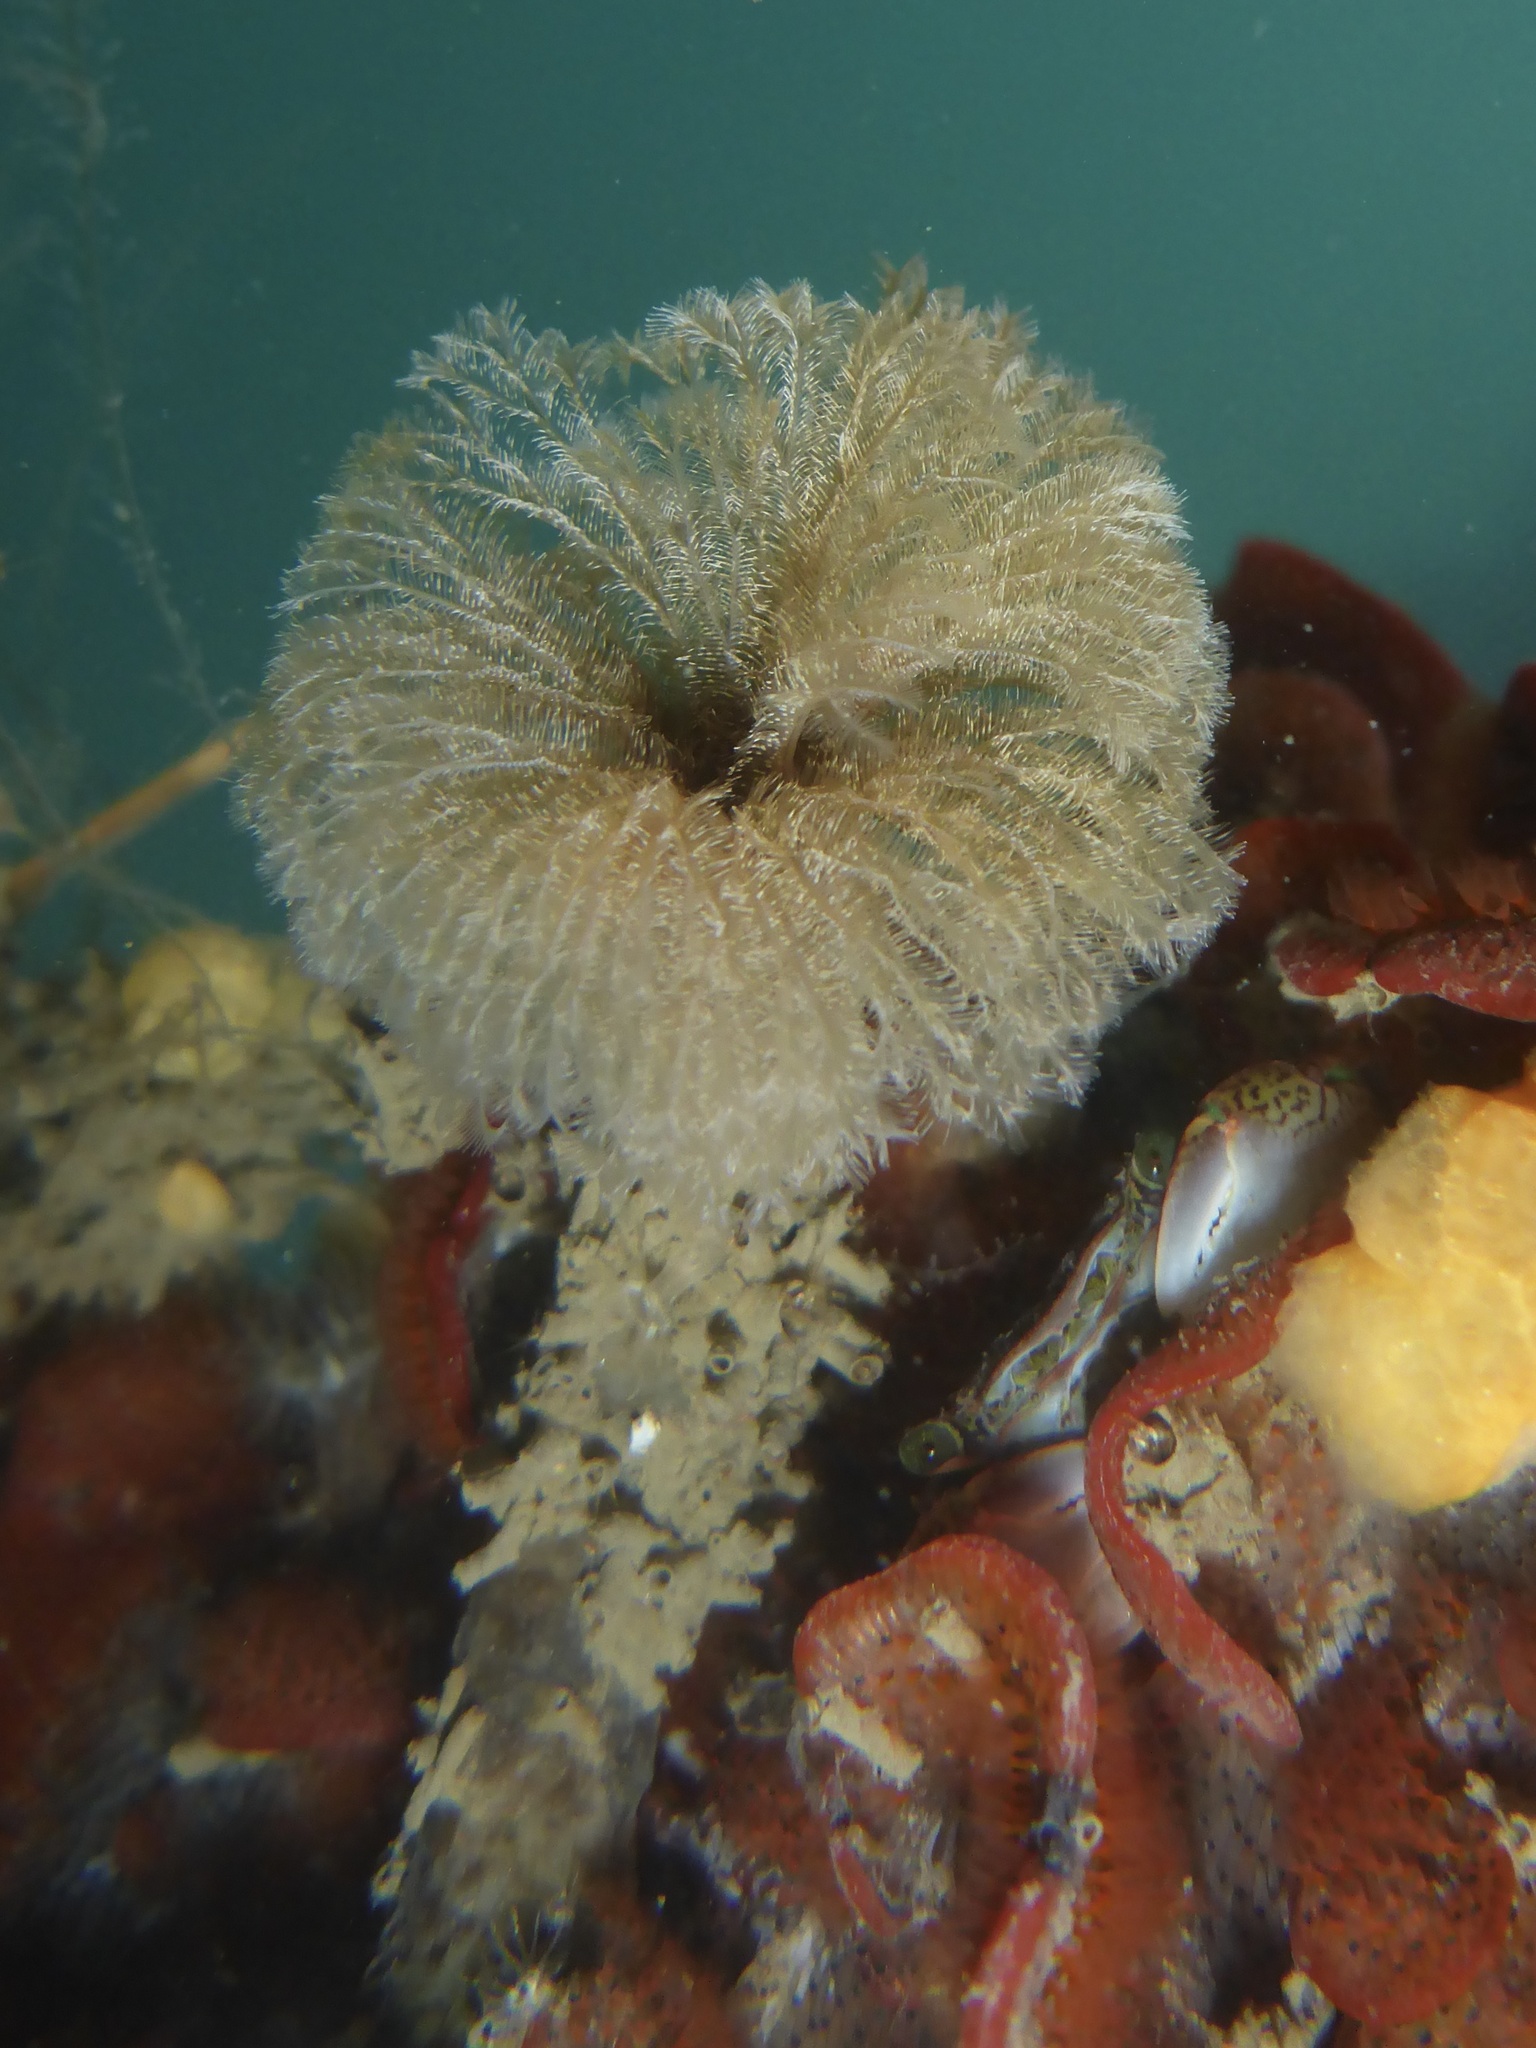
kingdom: Animalia
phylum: Annelida
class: Polychaeta
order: Sabellida
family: Sabellidae
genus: Schizobranchia
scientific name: Schizobranchia insignis
